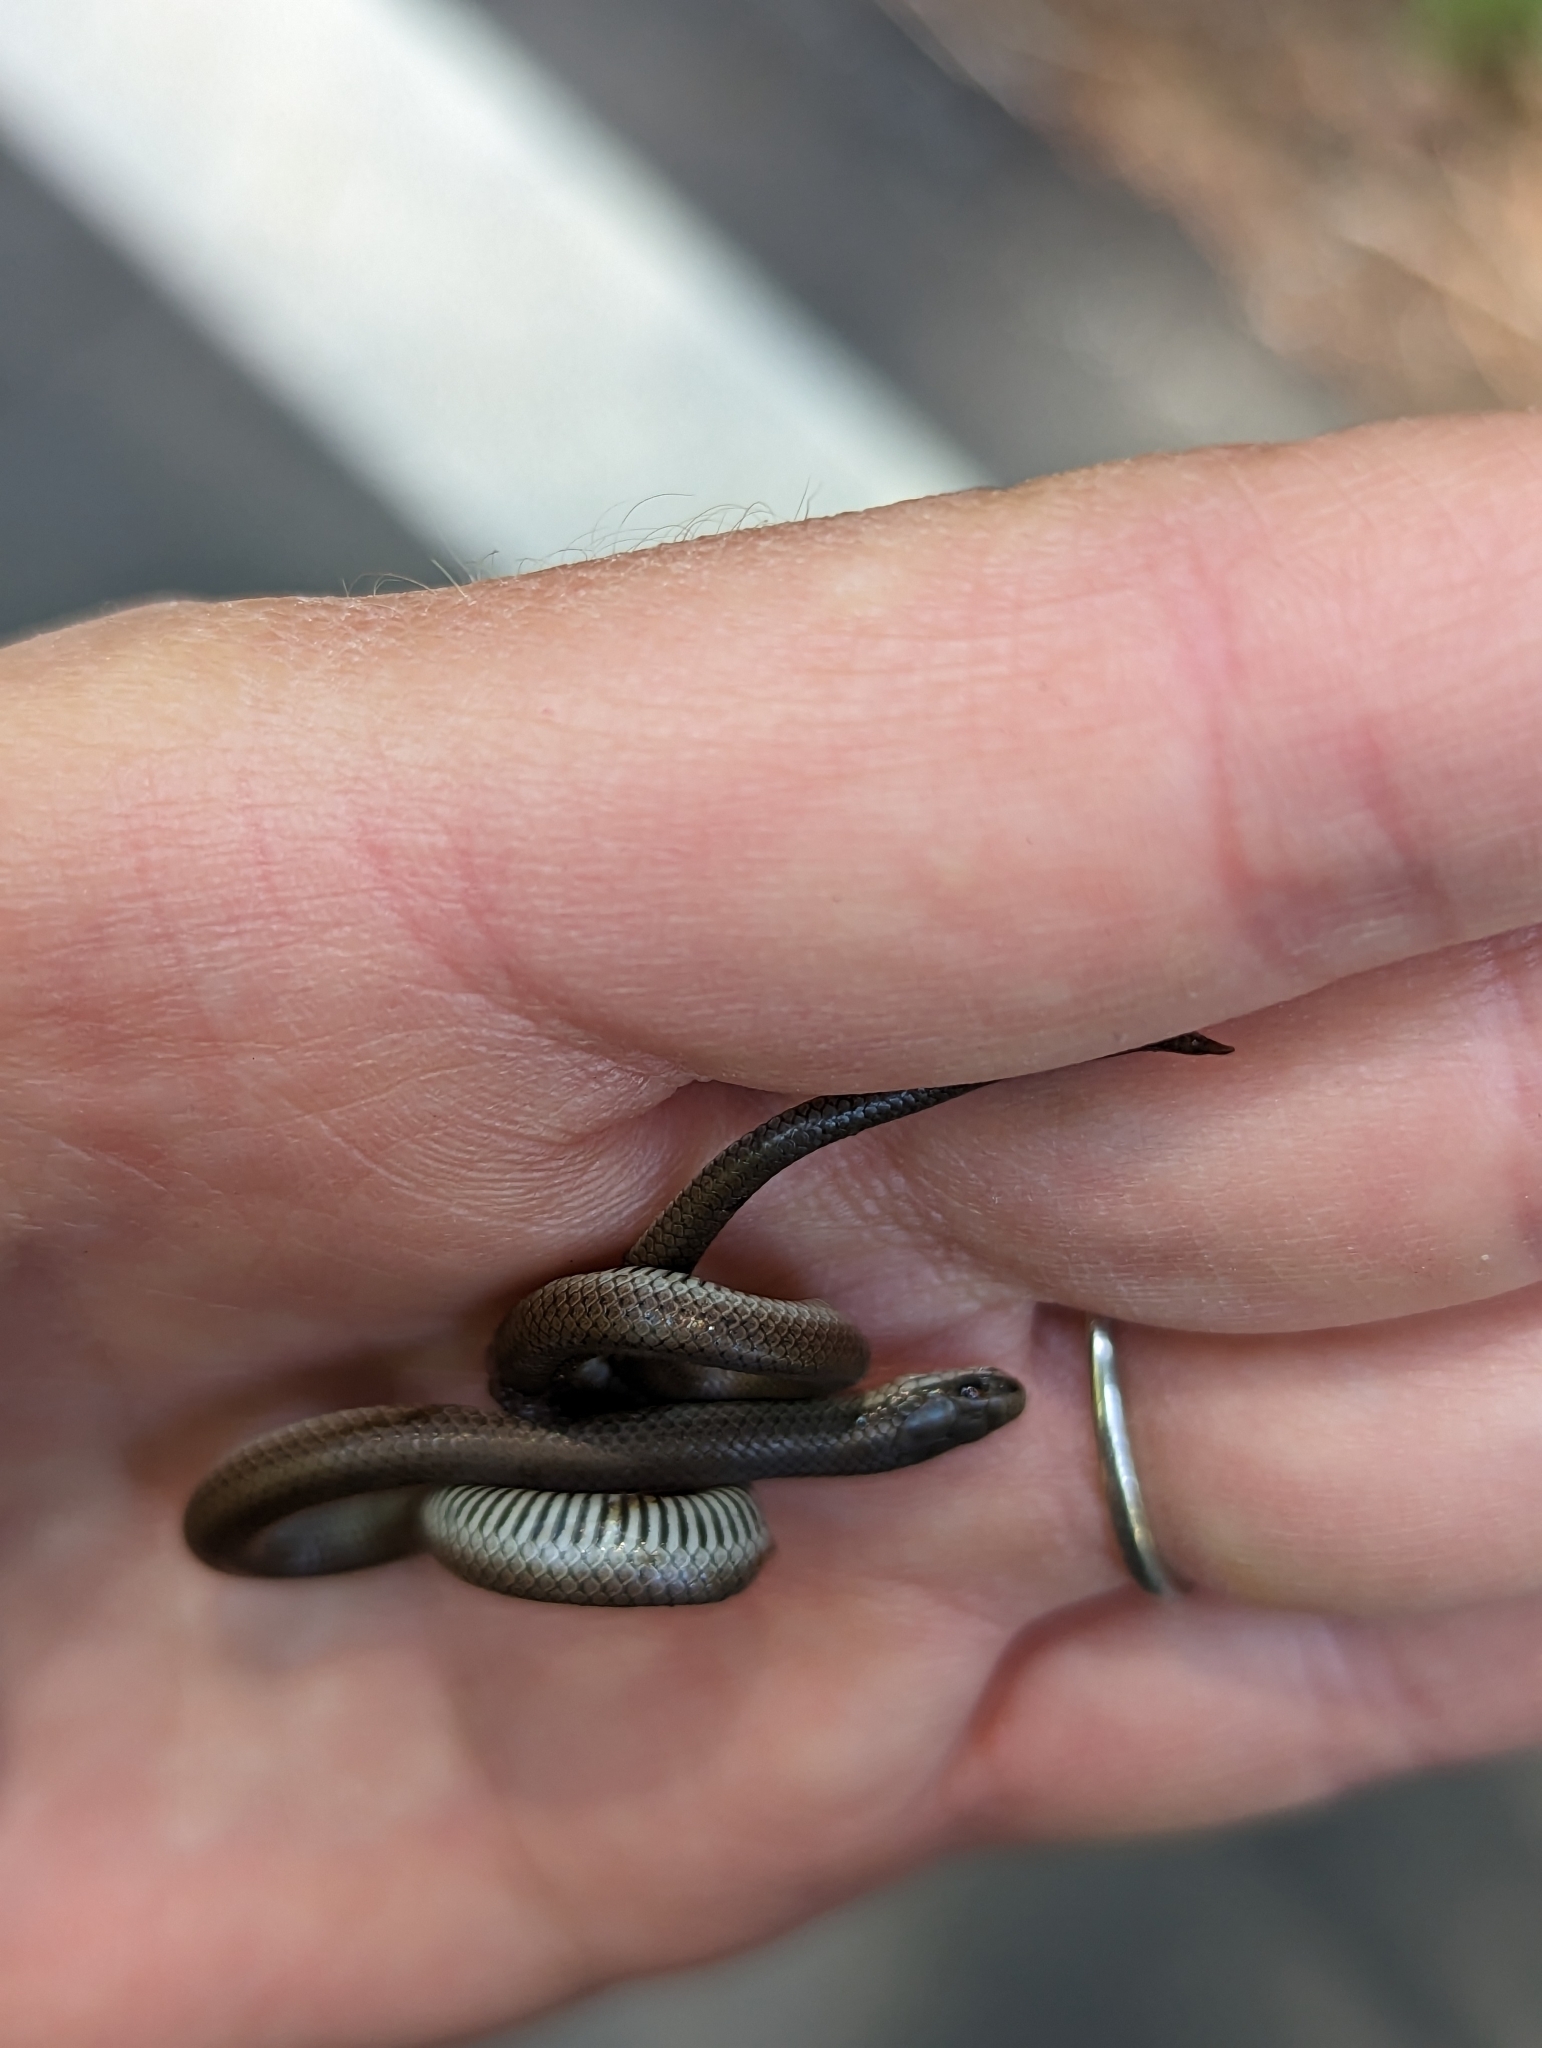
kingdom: Animalia
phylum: Chordata
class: Squamata
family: Colubridae
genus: Contia
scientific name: Contia longicaudae
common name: Forest sharp-tailed snake
